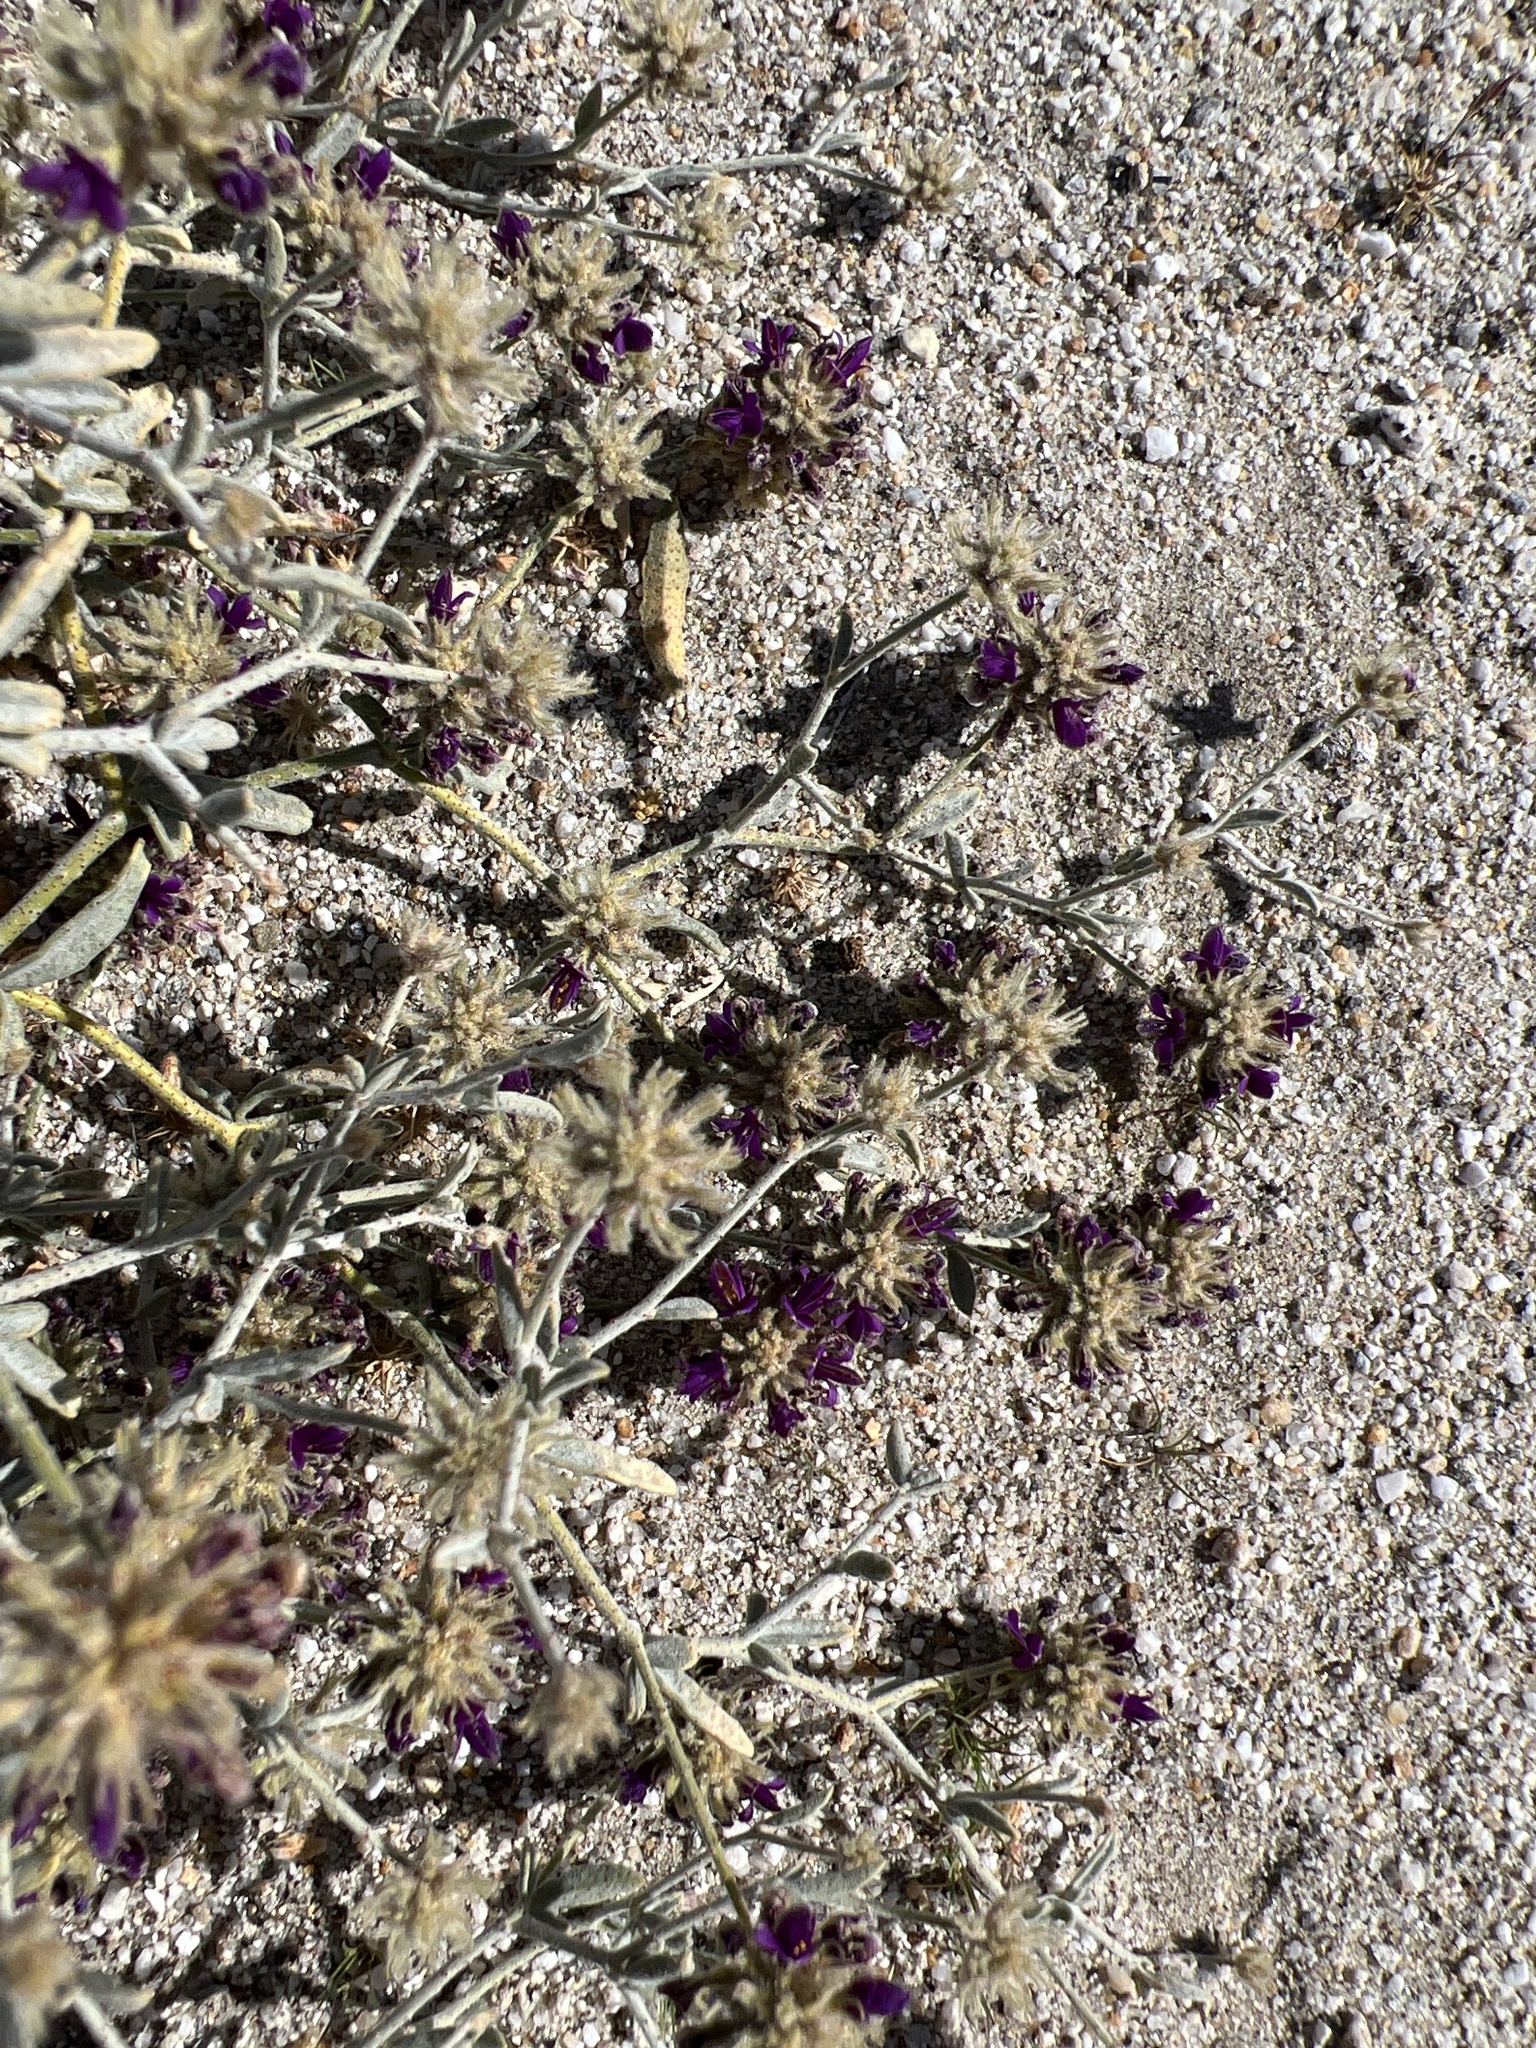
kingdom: Plantae
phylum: Tracheophyta
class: Magnoliopsida
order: Fabales
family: Fabaceae
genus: Psorothamnus
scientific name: Psorothamnus emoryi
